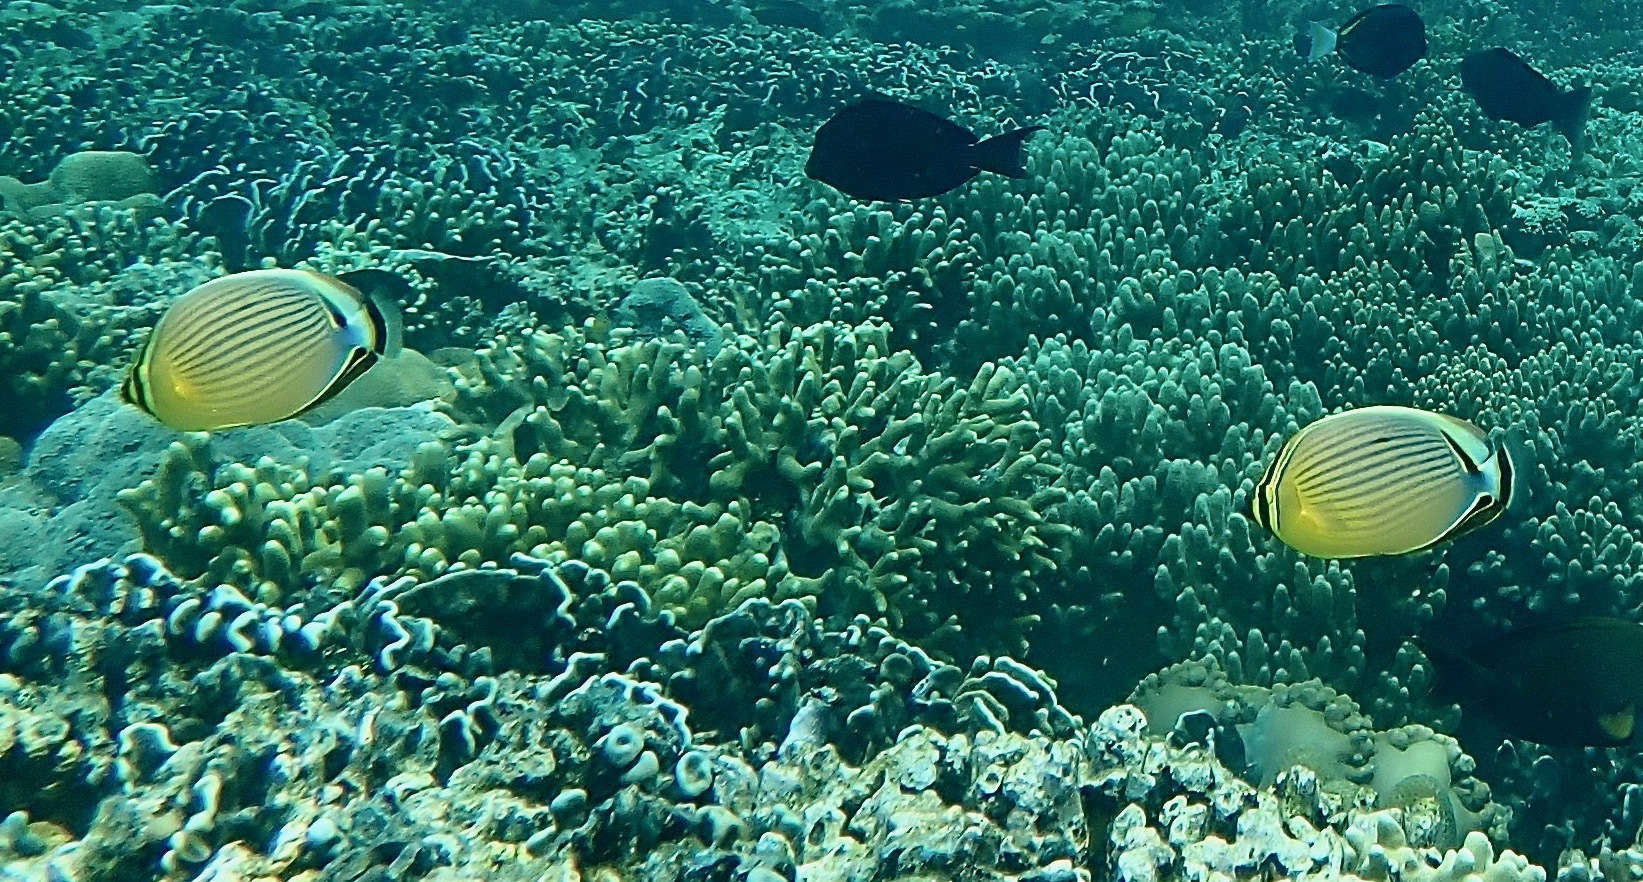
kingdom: Animalia
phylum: Chordata
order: Perciformes
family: Chaetodontidae
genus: Chaetodon
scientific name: Chaetodon lunulatus
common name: Redfin butterflyfish
